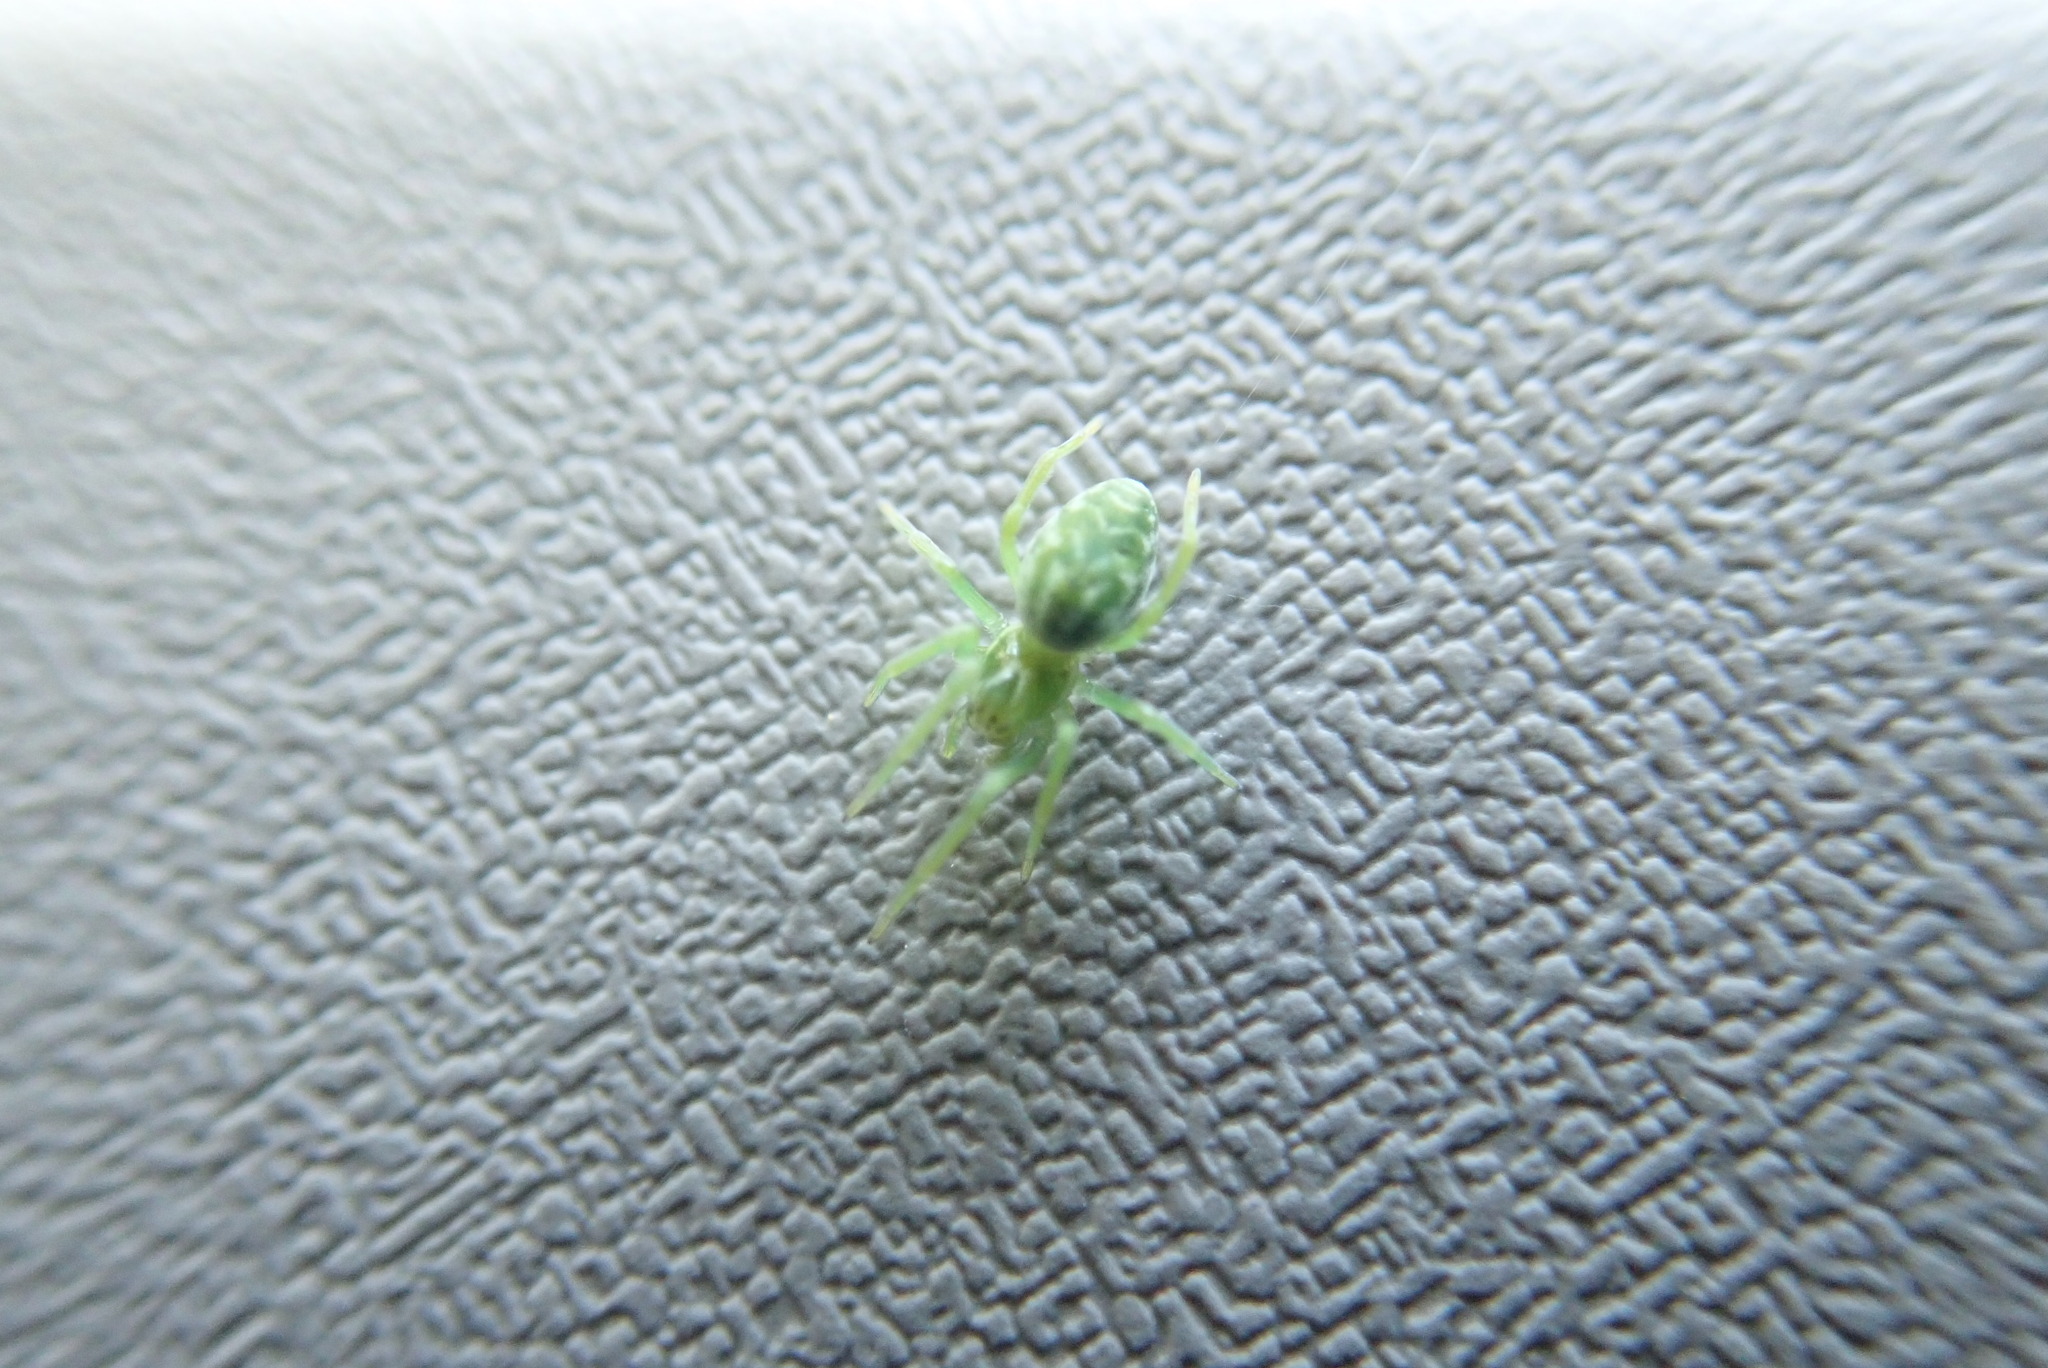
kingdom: Animalia
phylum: Arthropoda
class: Arachnida
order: Araneae
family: Dictynidae
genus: Nigma
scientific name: Nigma walckenaeri
